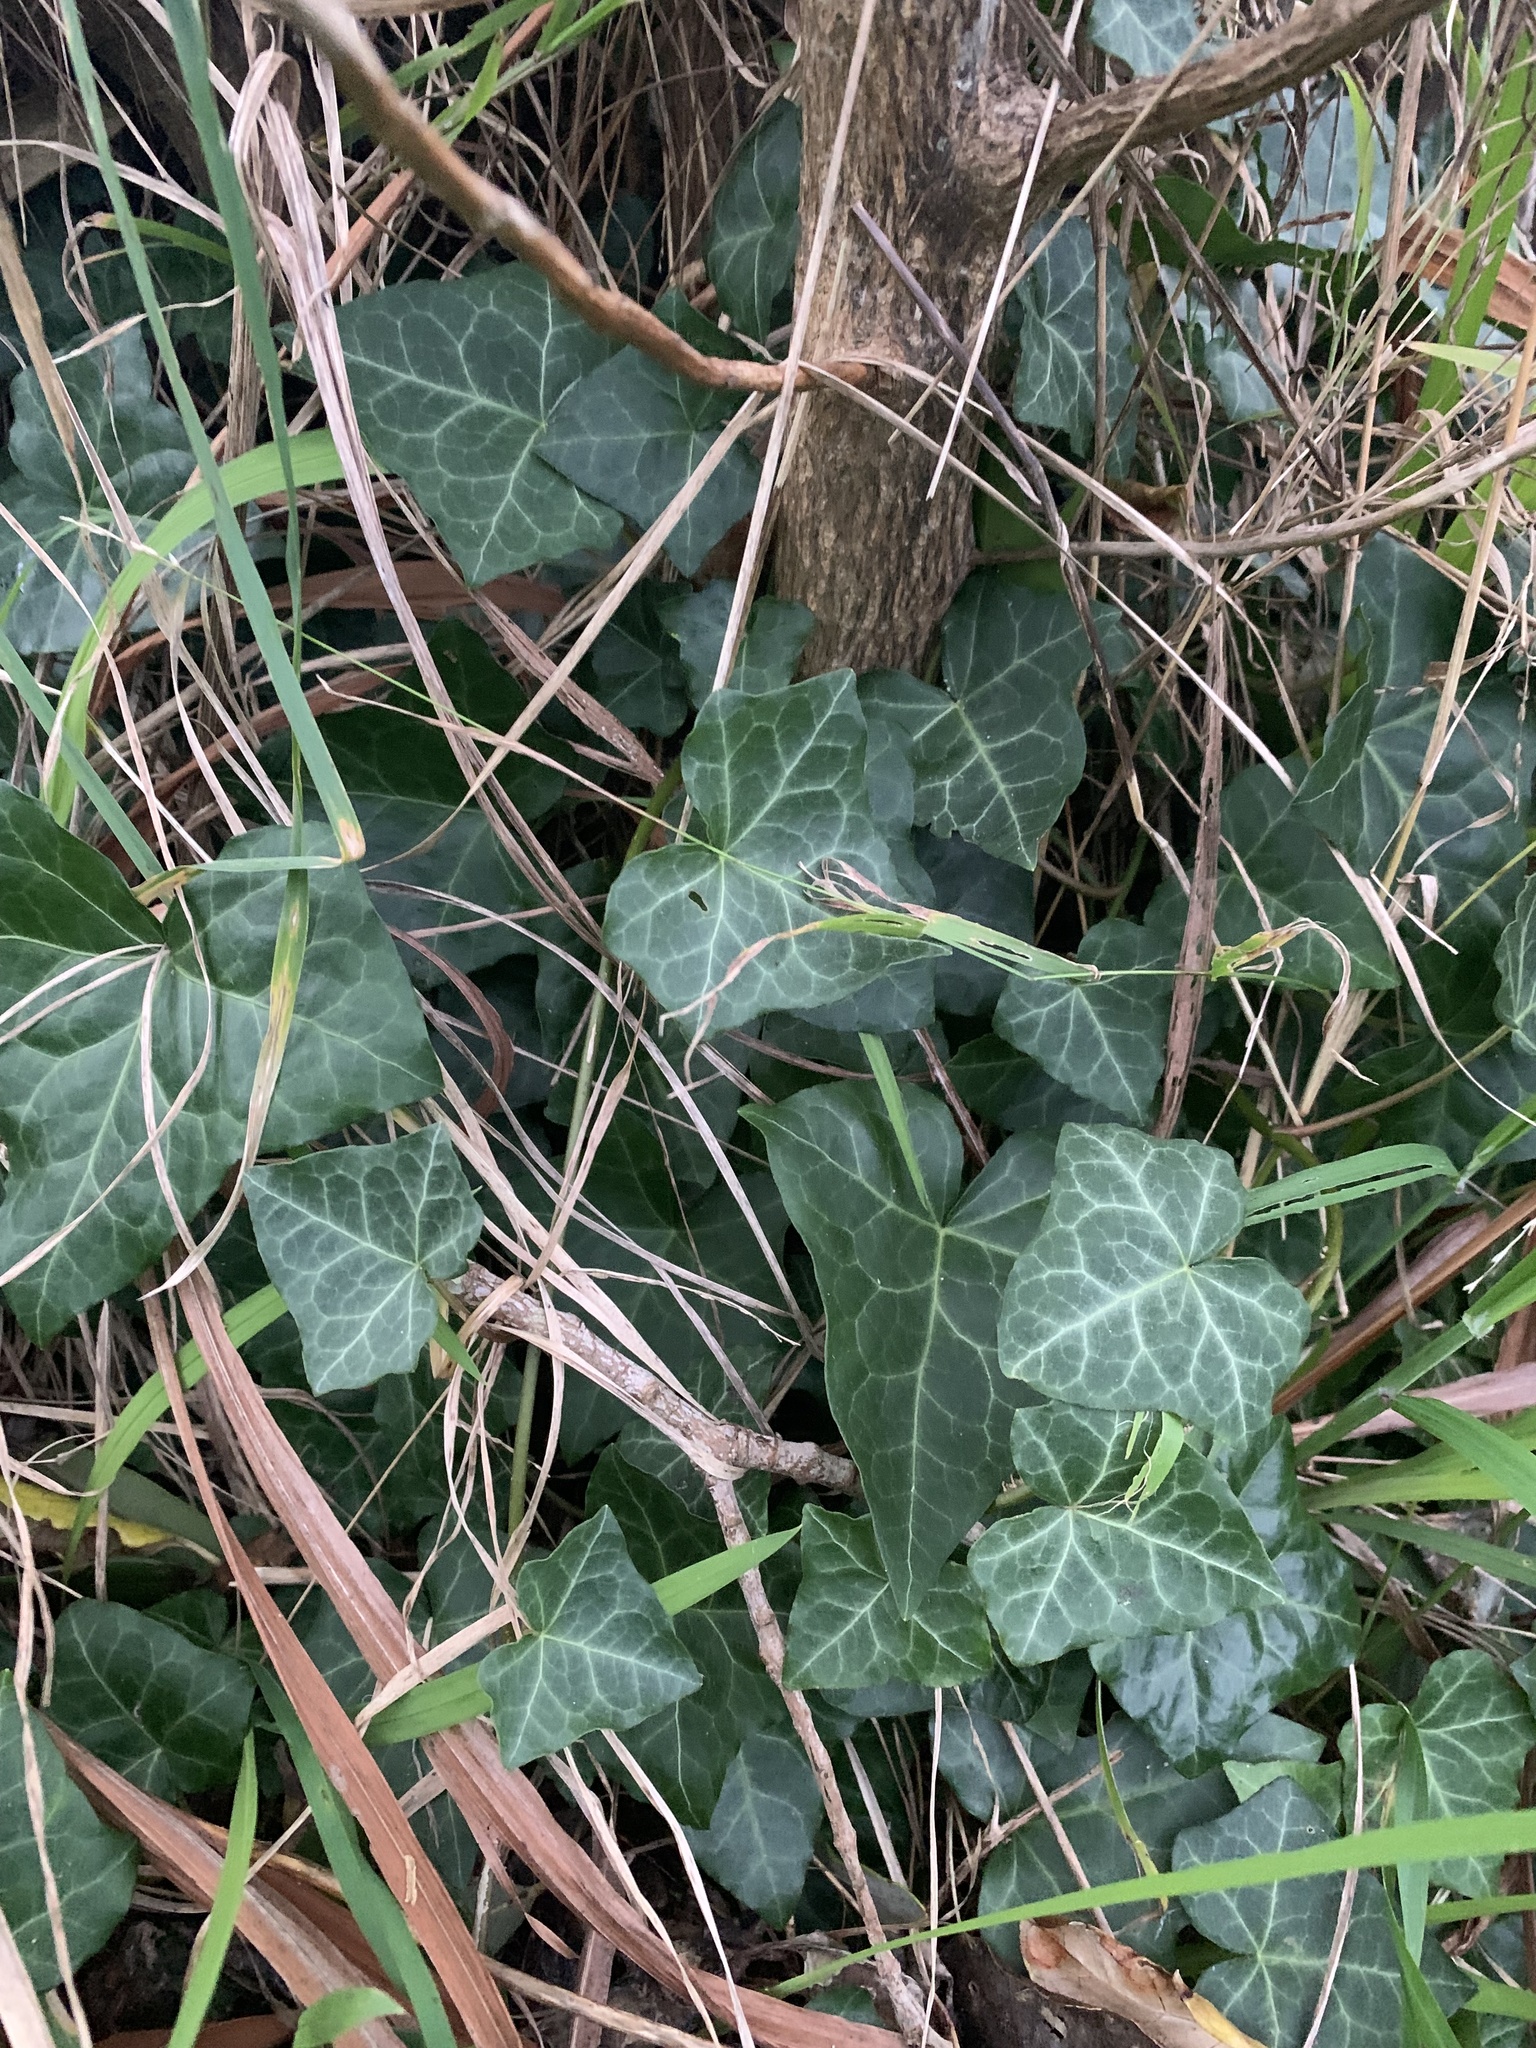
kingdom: Plantae
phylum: Tracheophyta
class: Magnoliopsida
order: Apiales
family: Araliaceae
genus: Hedera
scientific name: Hedera helix
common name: Ivy
